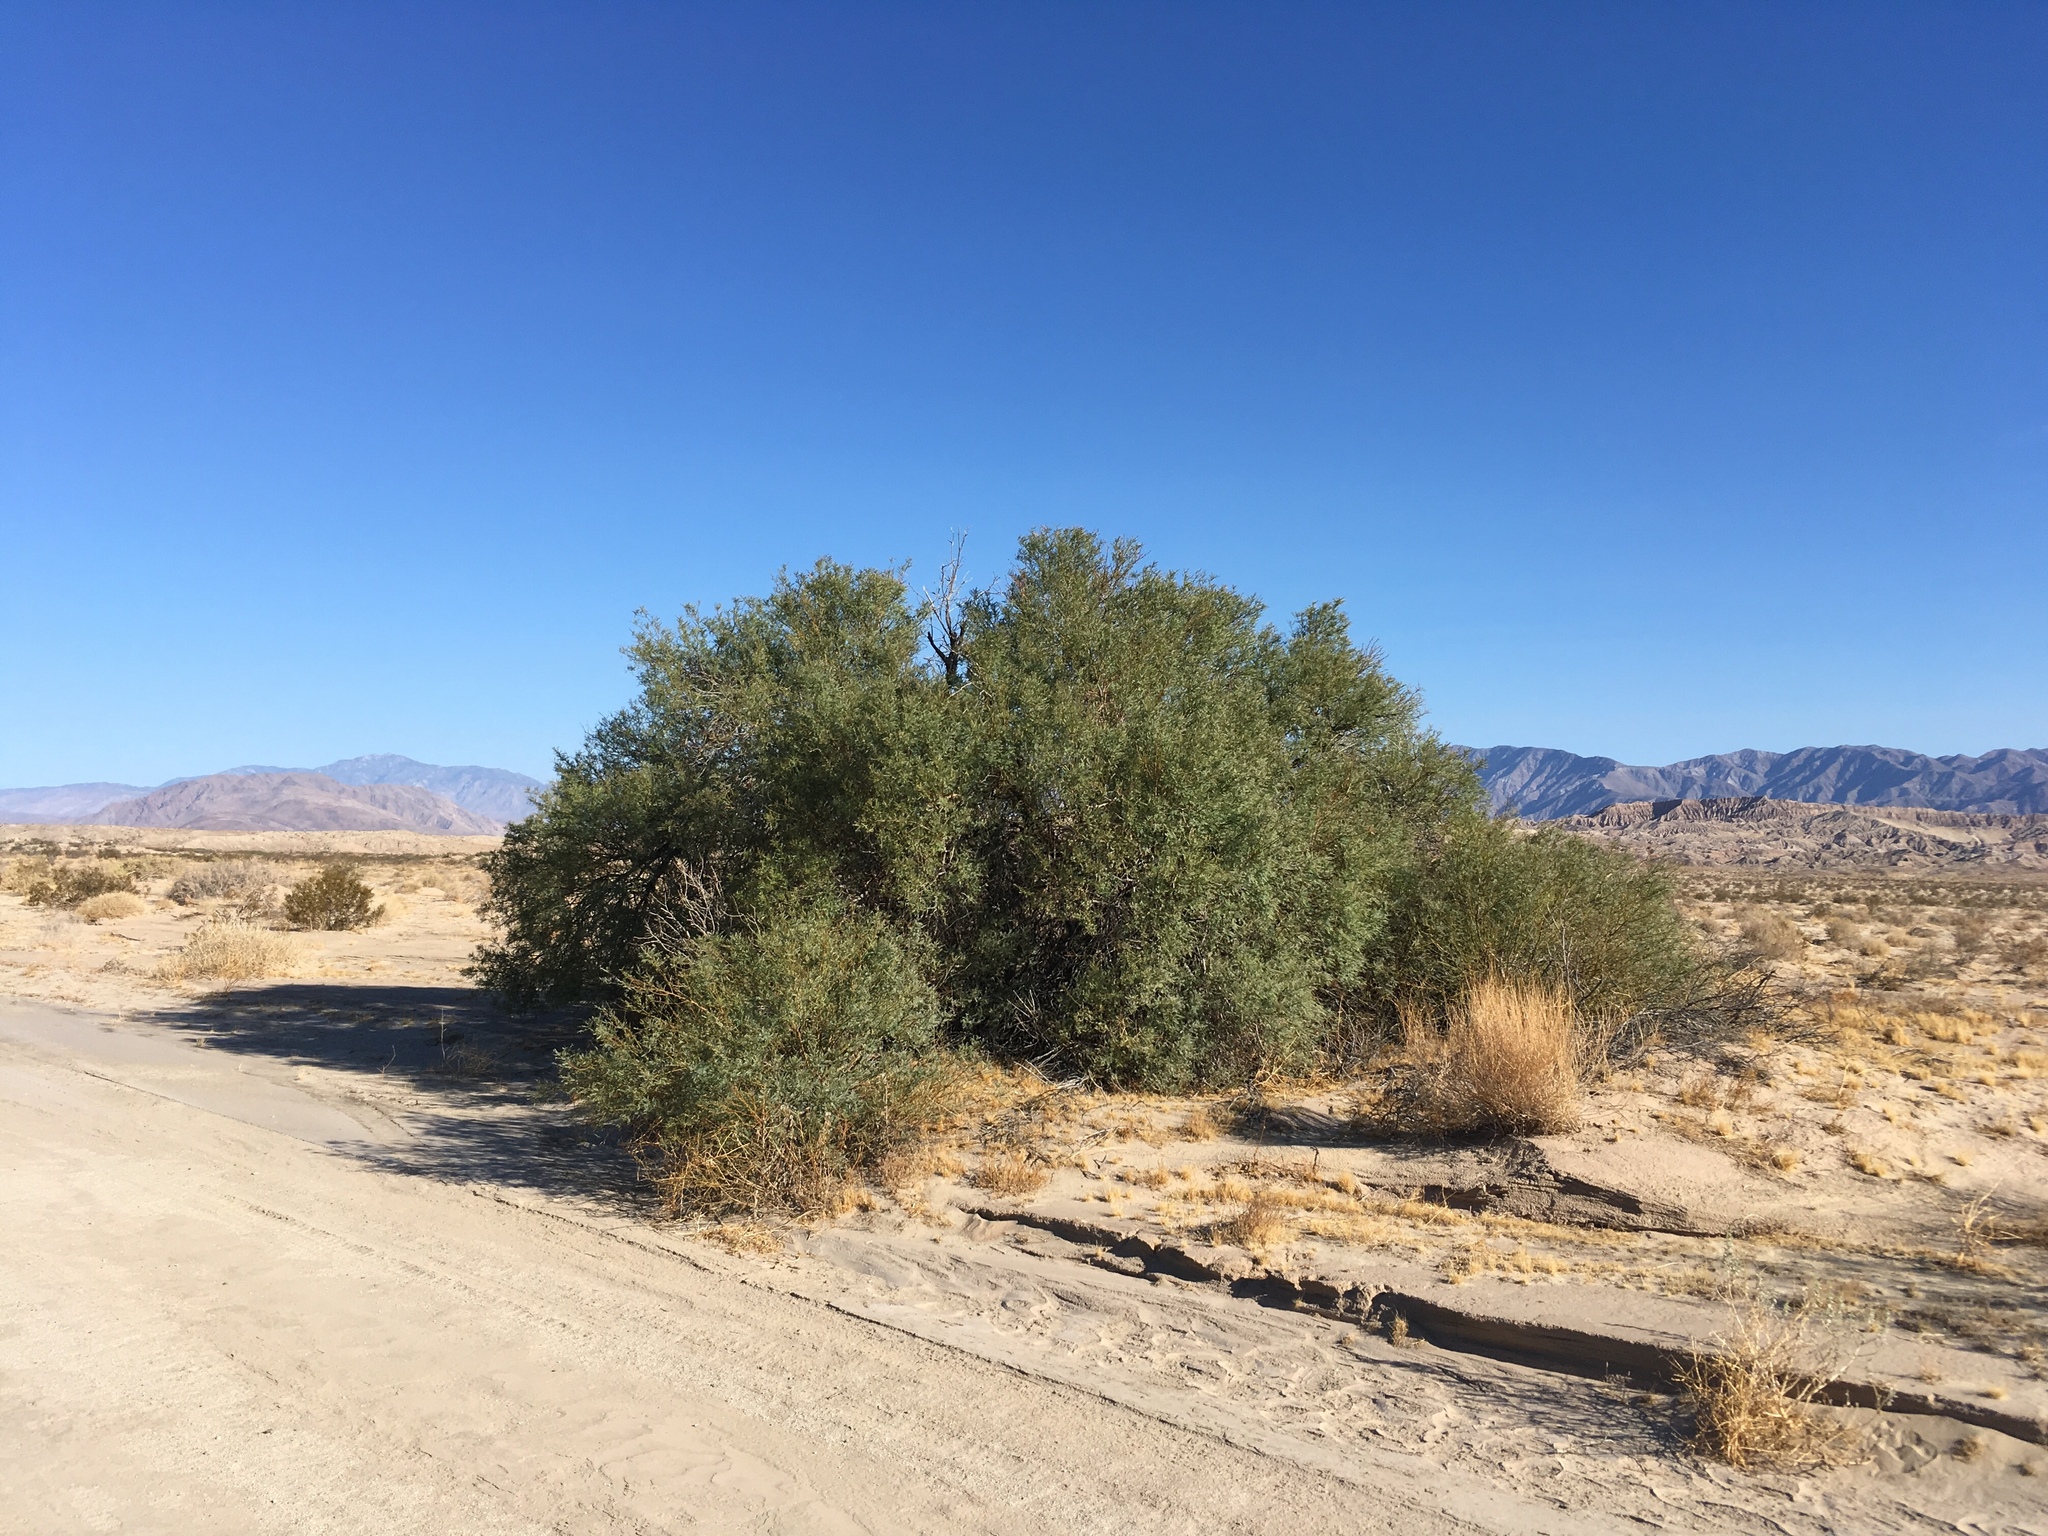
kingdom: Plantae
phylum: Tracheophyta
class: Magnoliopsida
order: Fabales
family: Fabaceae
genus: Prosopis
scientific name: Prosopis pubescens
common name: Screw-bean
